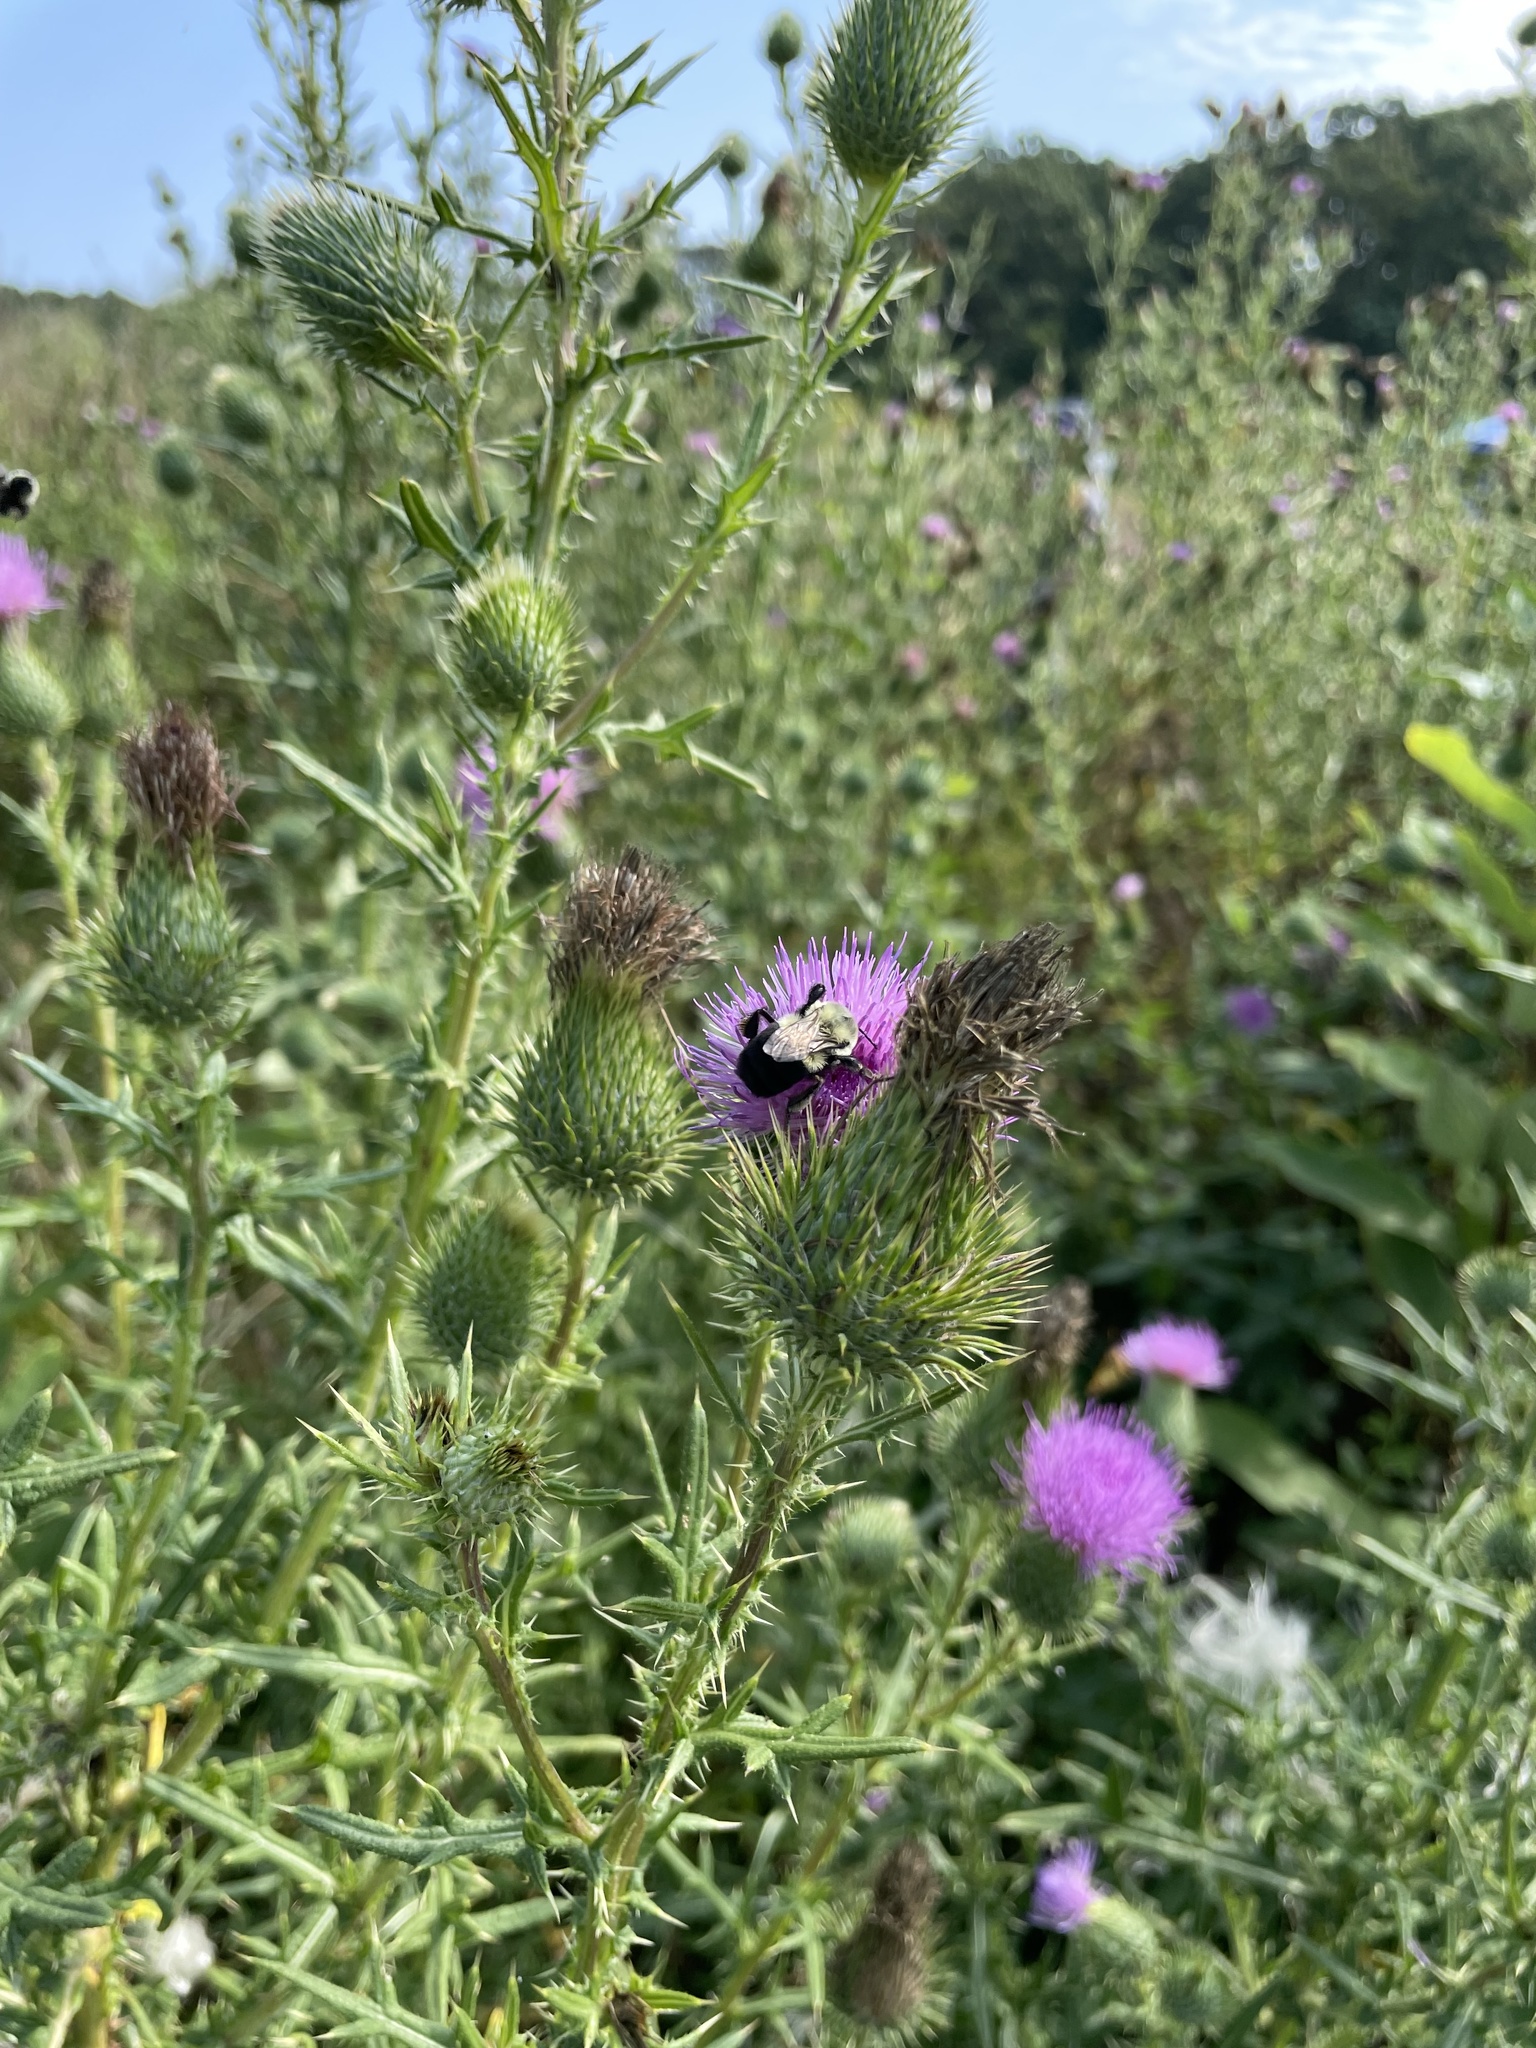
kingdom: Animalia
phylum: Arthropoda
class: Insecta
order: Hymenoptera
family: Apidae
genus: Bombus
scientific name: Bombus impatiens
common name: Common eastern bumble bee
